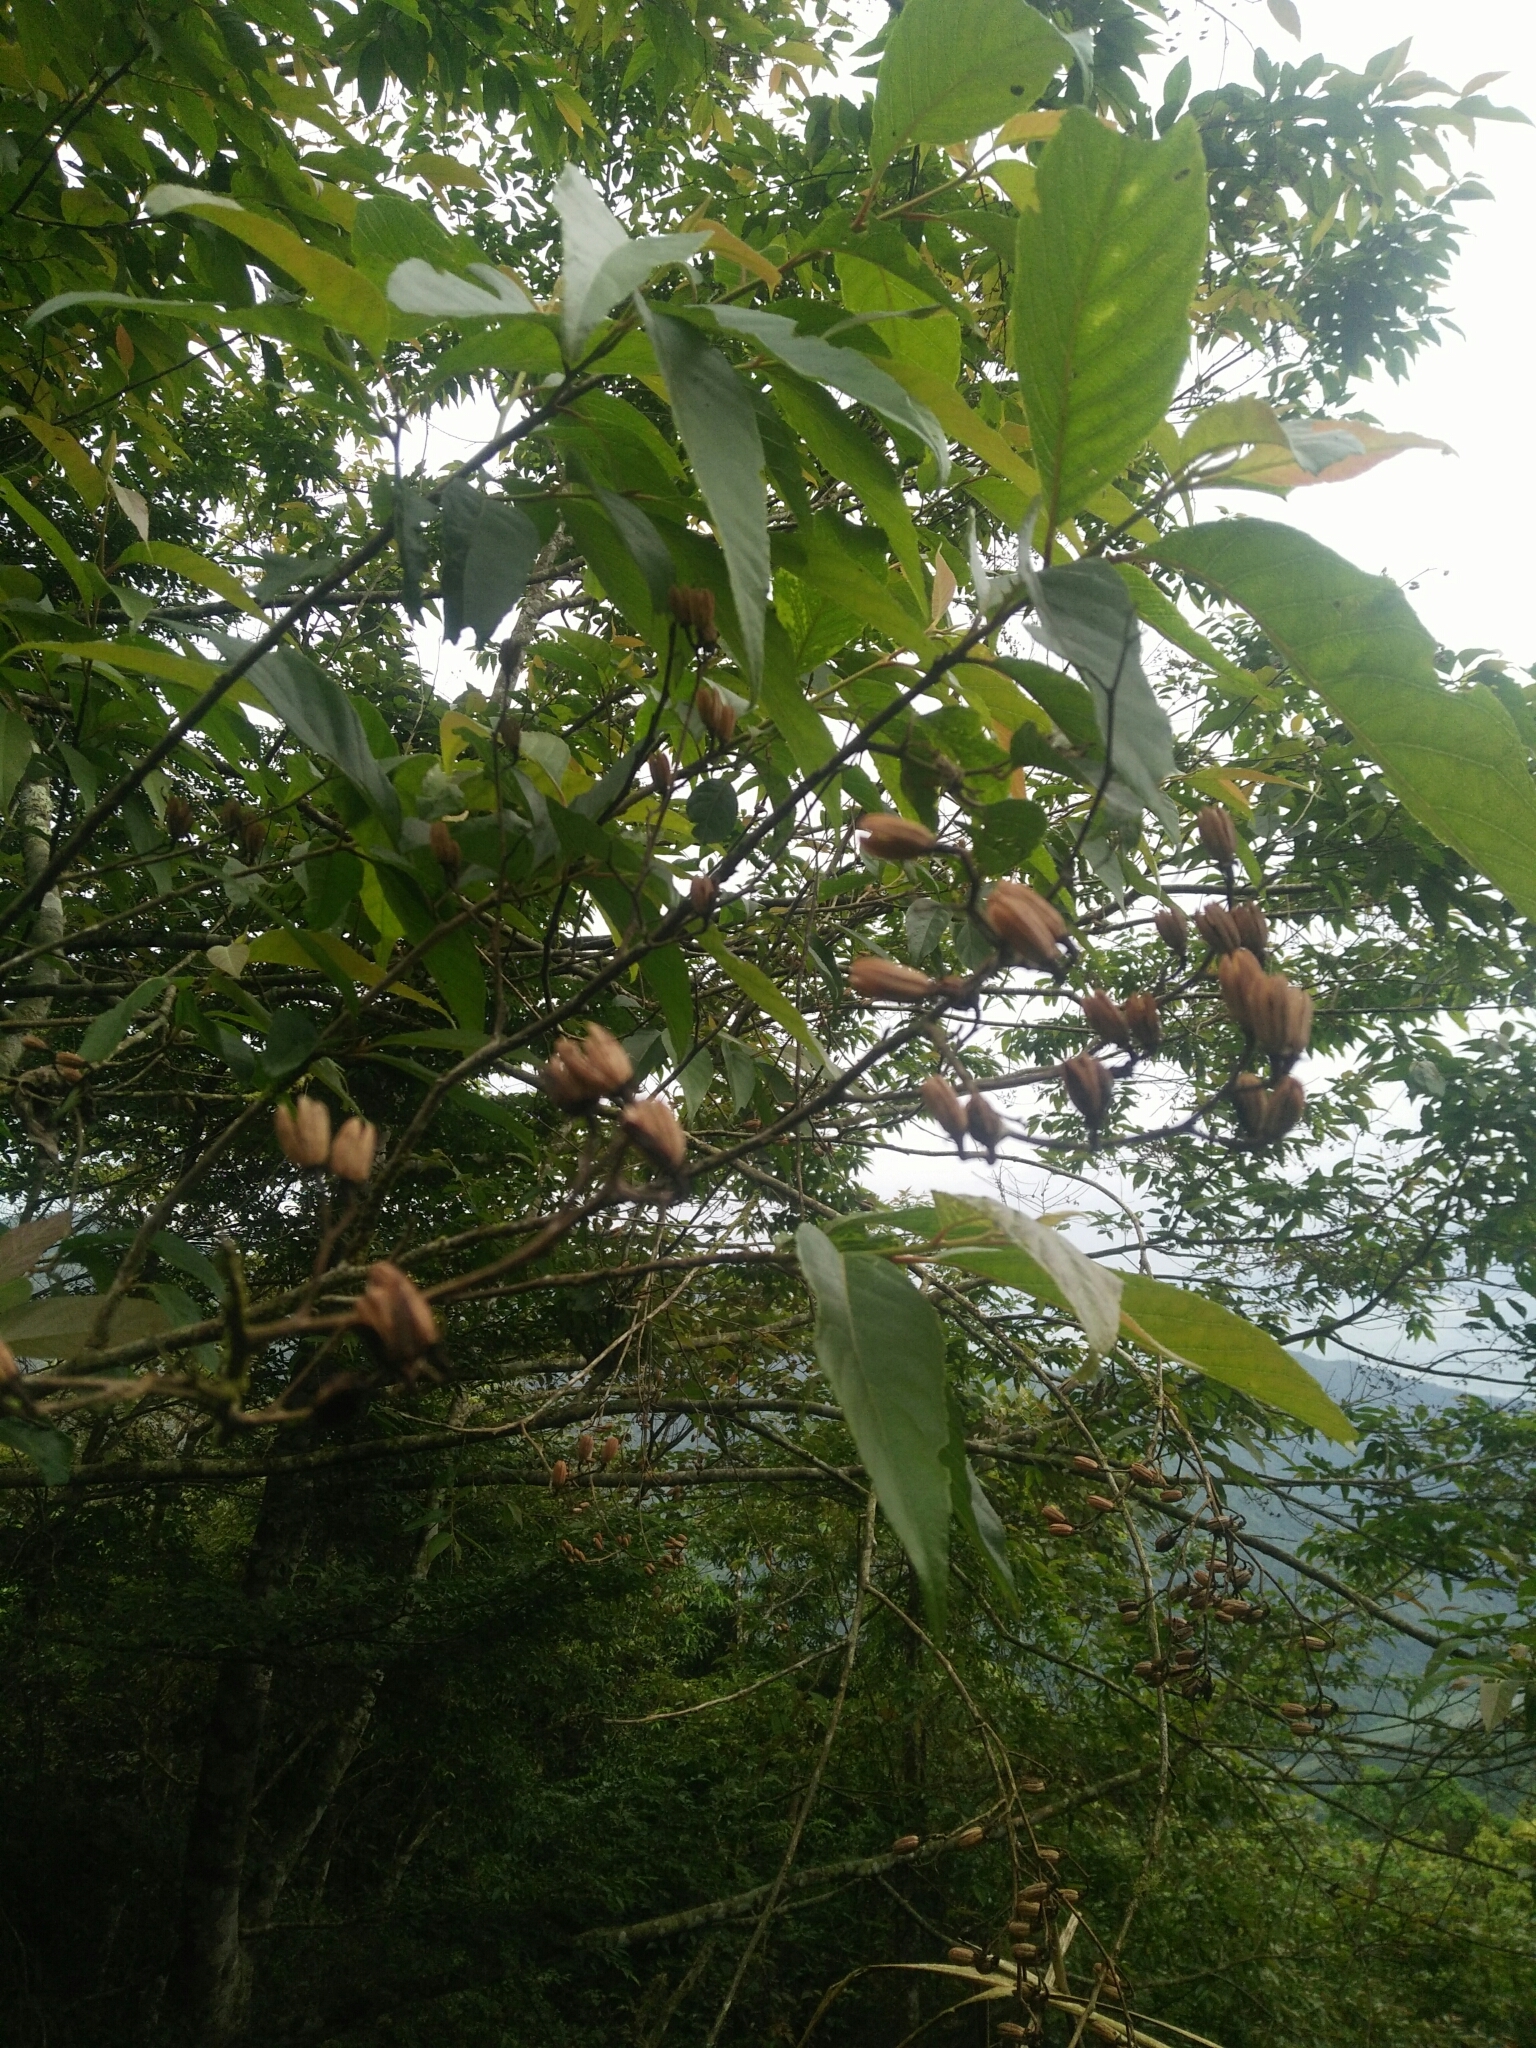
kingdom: Plantae
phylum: Tracheophyta
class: Magnoliopsida
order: Ericales
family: Styracaceae
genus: Alniphyllum
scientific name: Alniphyllum pterospermum
